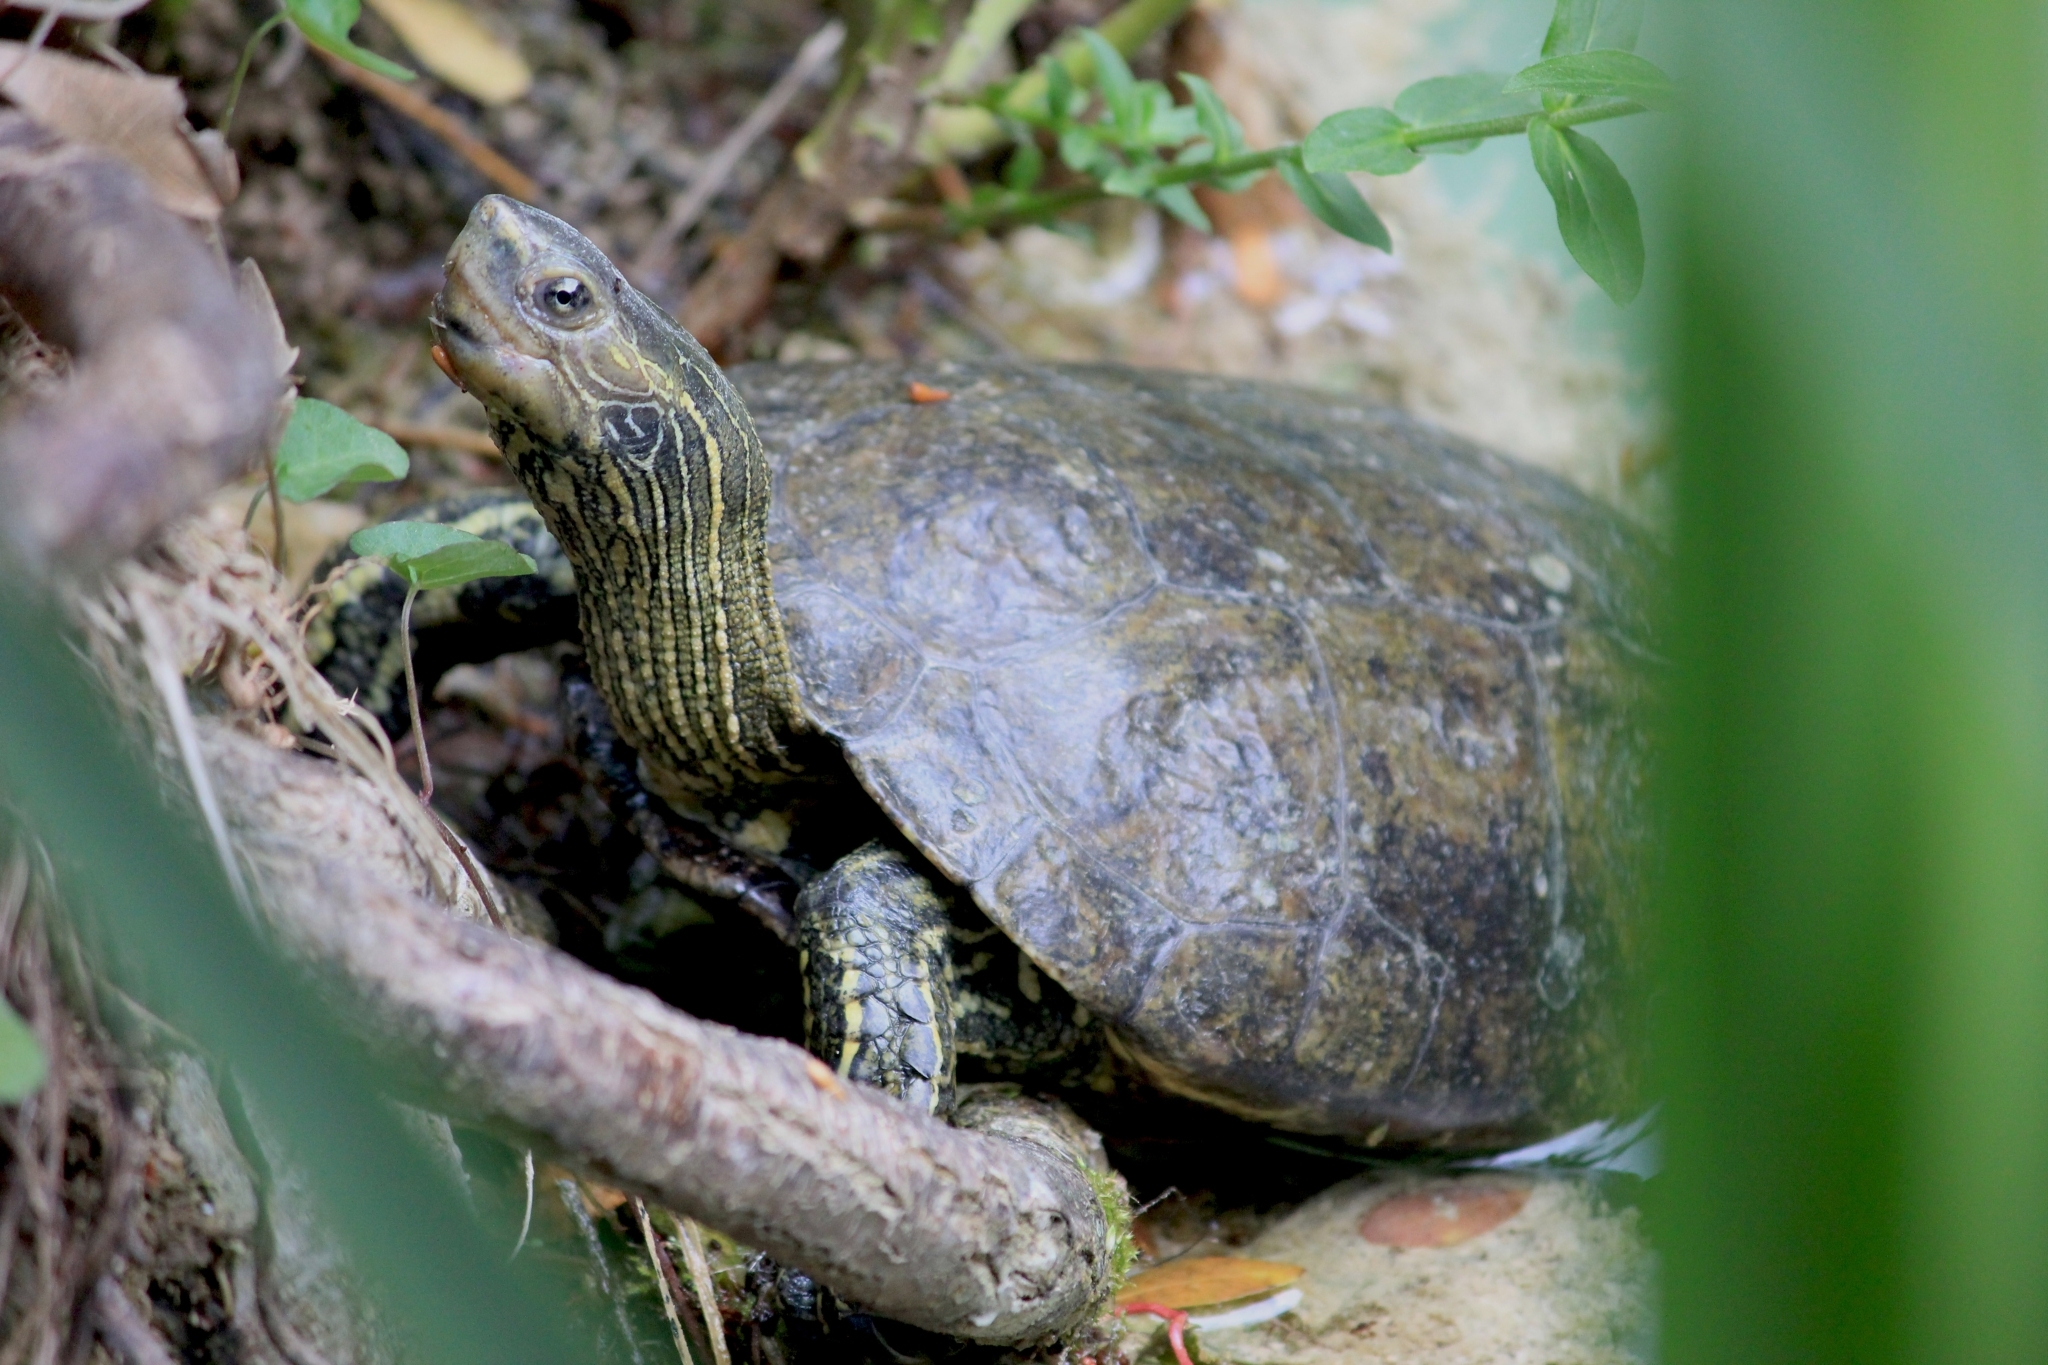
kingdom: Animalia
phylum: Chordata
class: Testudines
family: Geoemydidae
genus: Mauremys
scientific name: Mauremys rivulata
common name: Western caspian turtle
